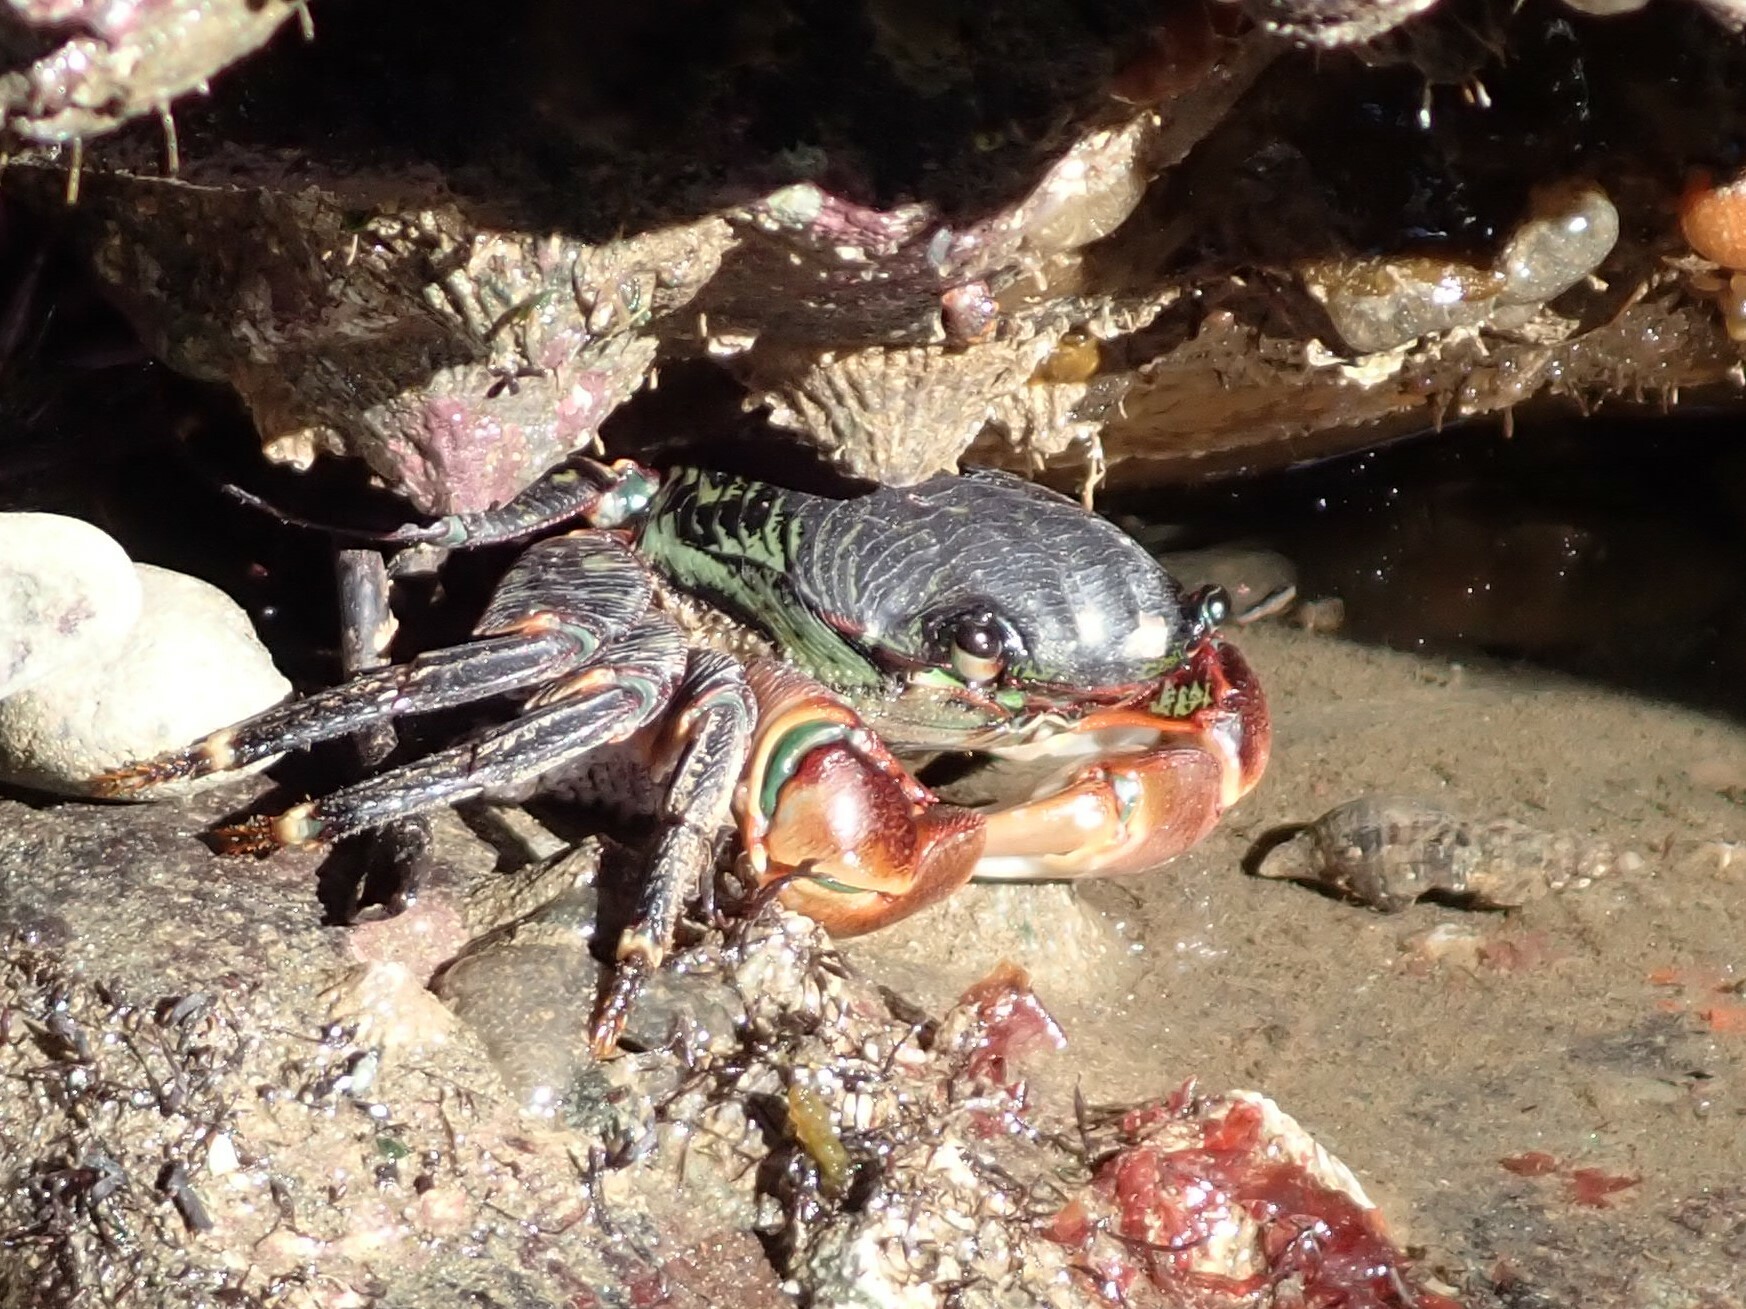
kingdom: Animalia
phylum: Arthropoda
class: Malacostraca
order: Decapoda
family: Grapsidae
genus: Pachygrapsus
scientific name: Pachygrapsus crassipes
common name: Striped shore crab
